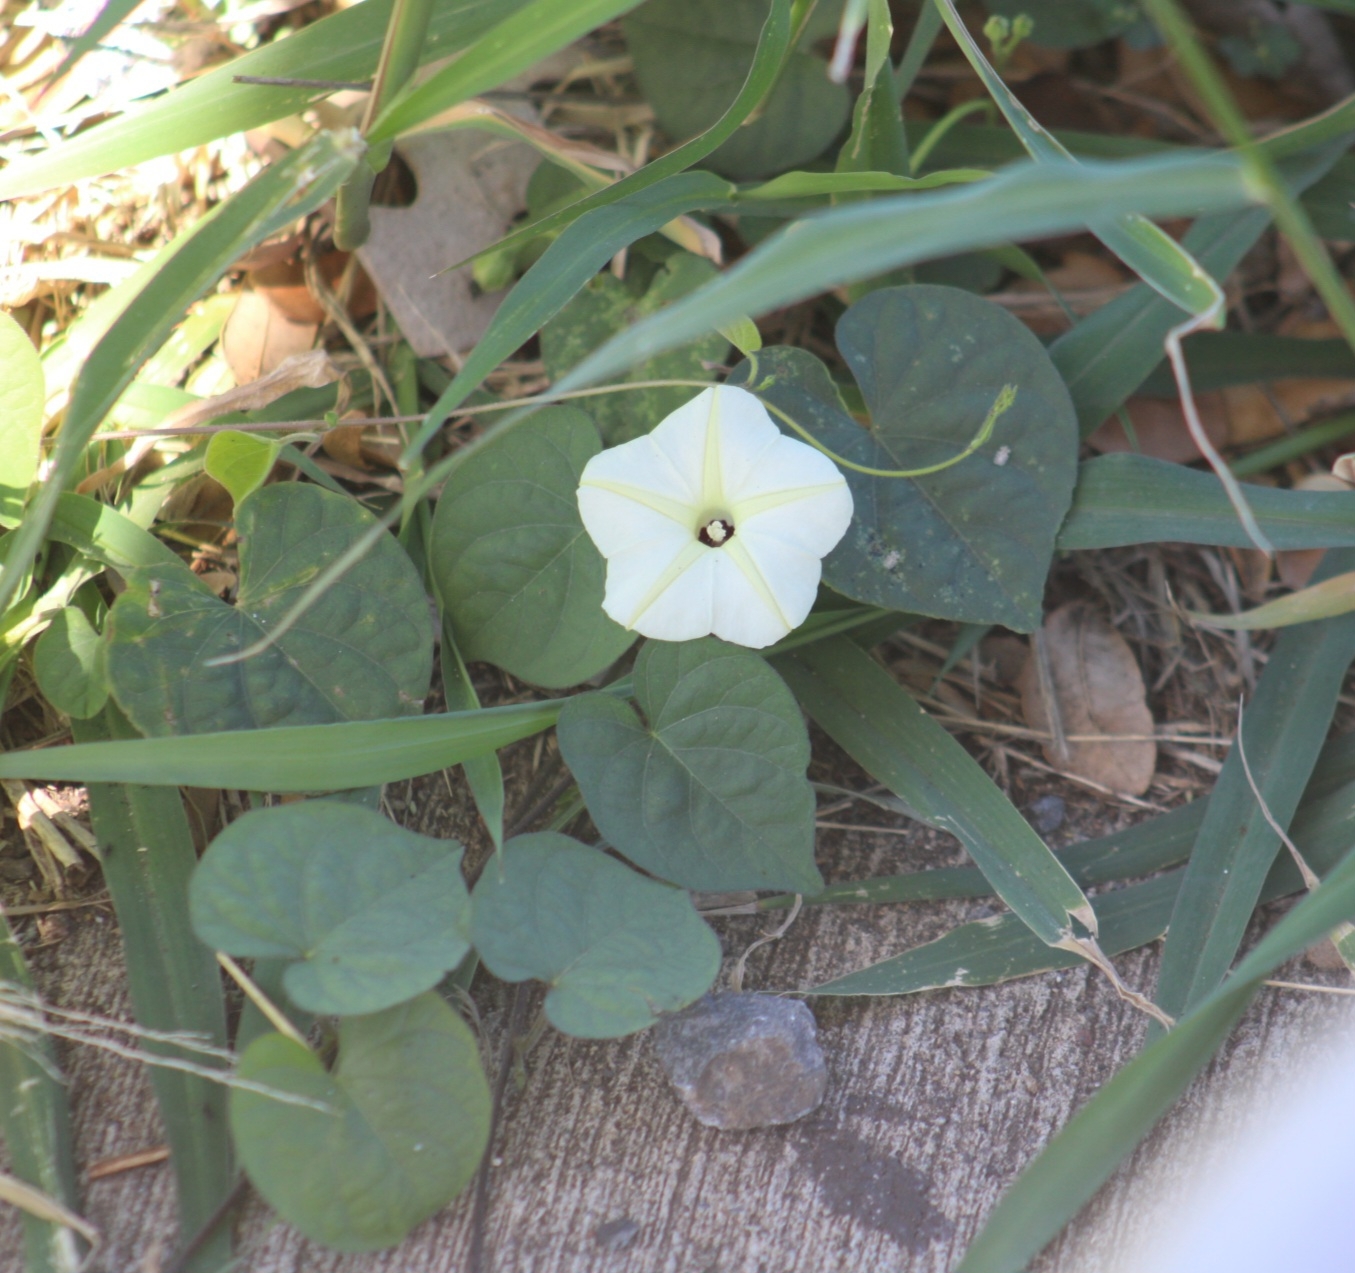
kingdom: Plantae
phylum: Tracheophyta
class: Magnoliopsida
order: Solanales
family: Convolvulaceae
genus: Ipomoea
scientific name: Ipomoea obscura
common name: Obscure morning-glory
